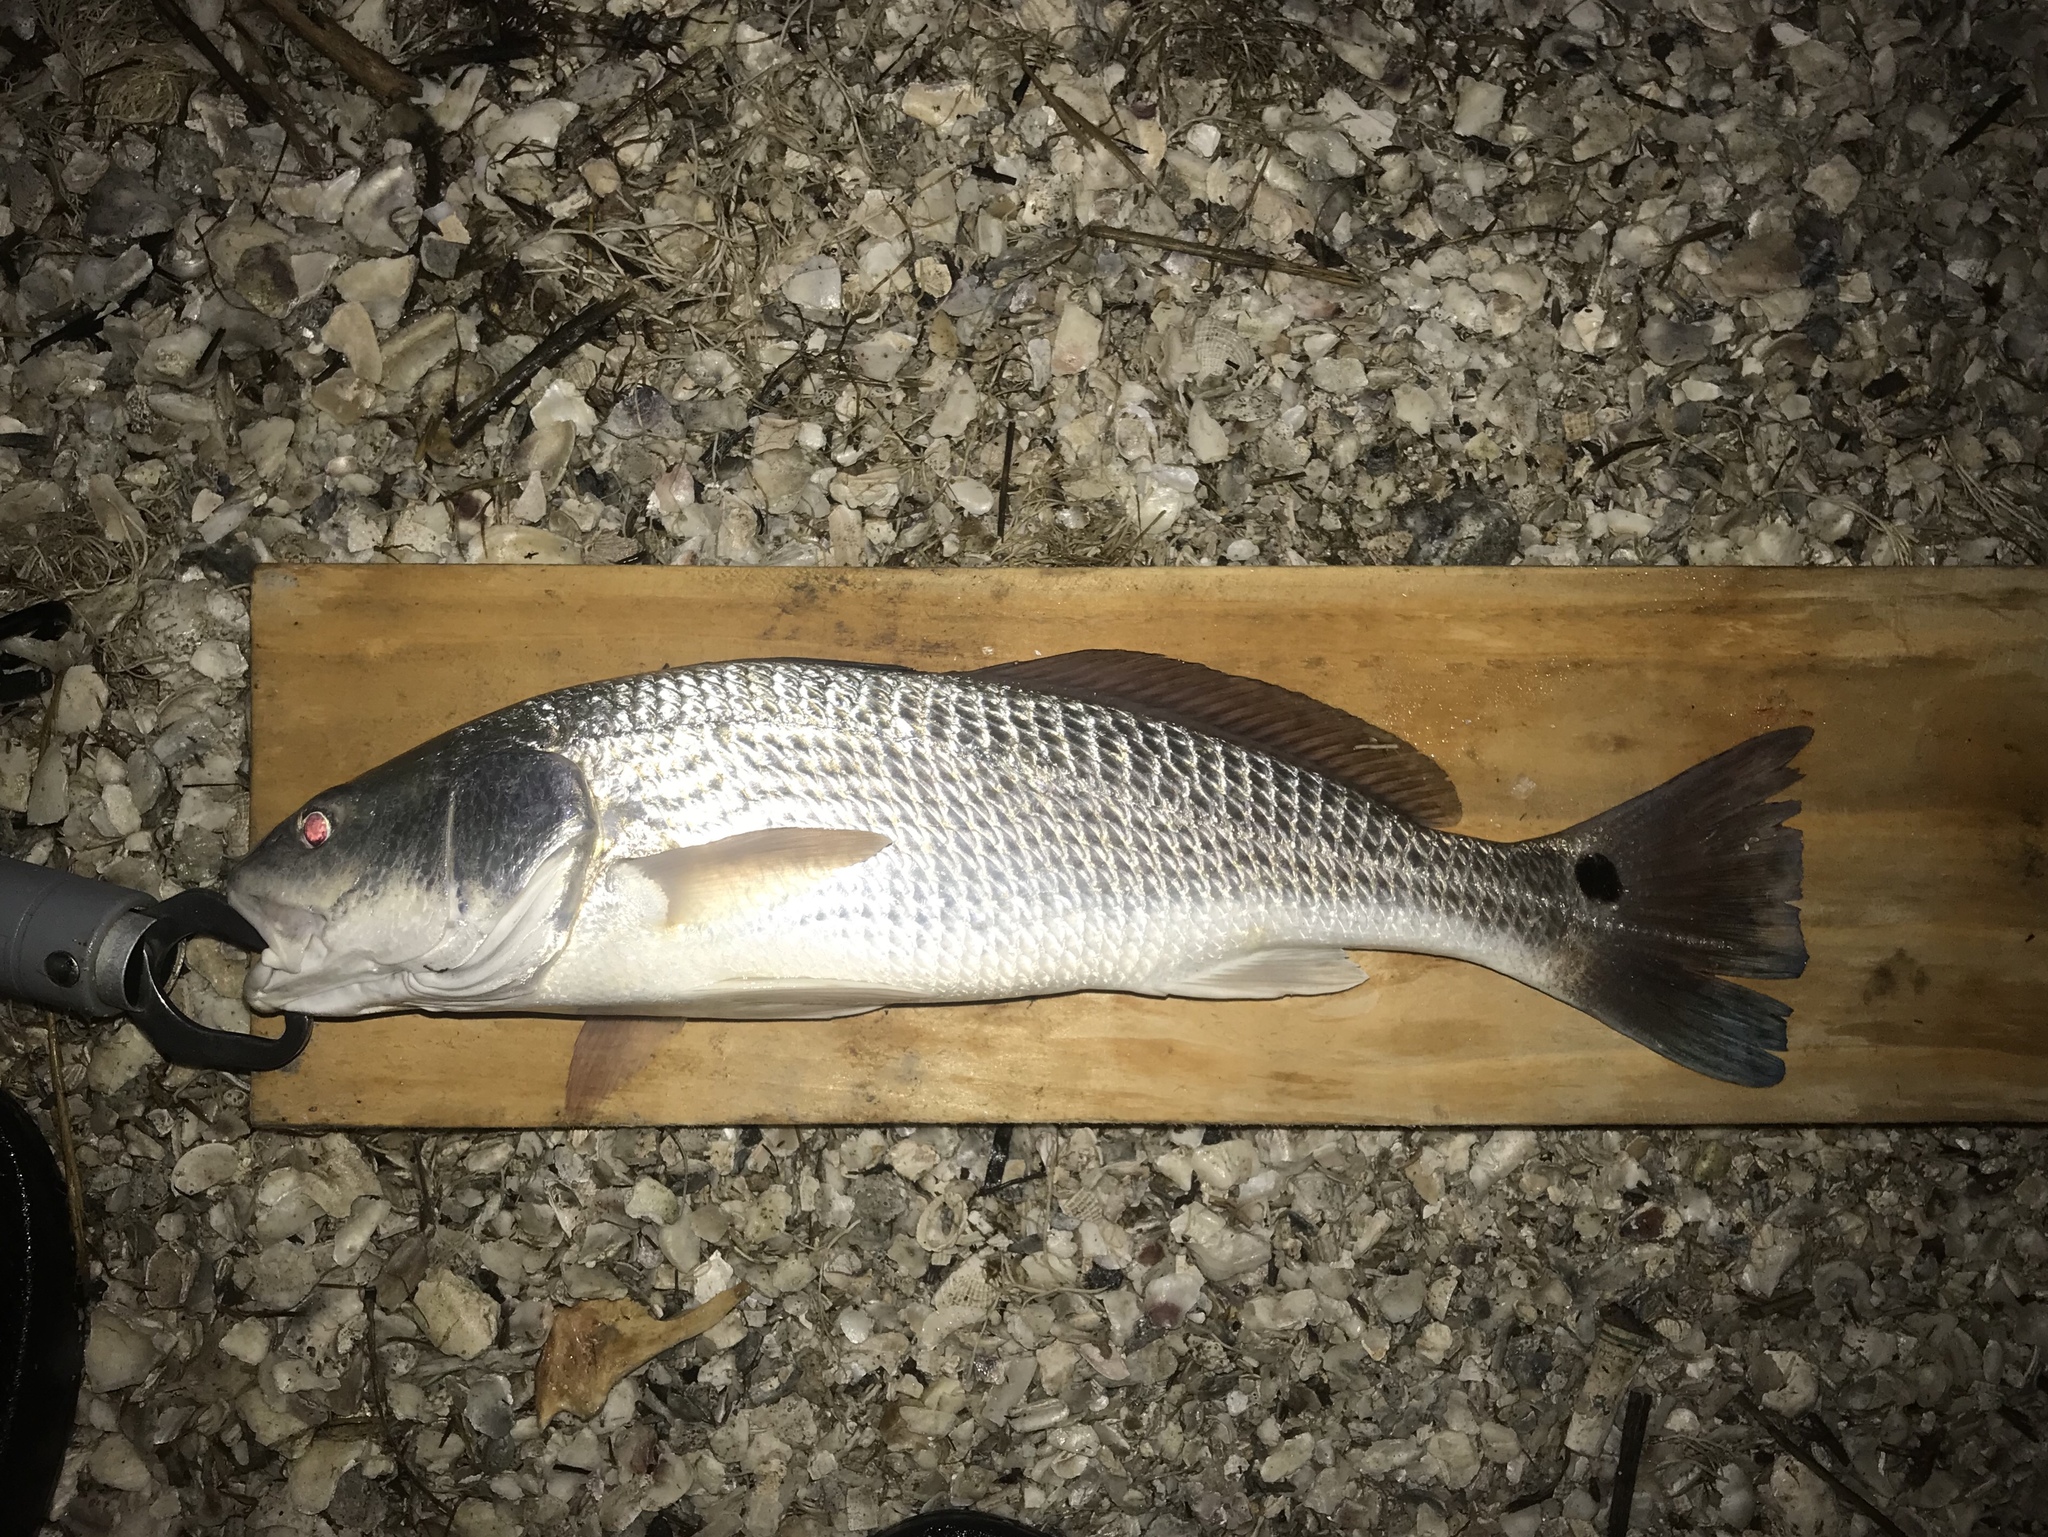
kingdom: Animalia
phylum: Chordata
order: Perciformes
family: Sciaenidae
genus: Sciaenops
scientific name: Sciaenops ocellatus
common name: Red drum
